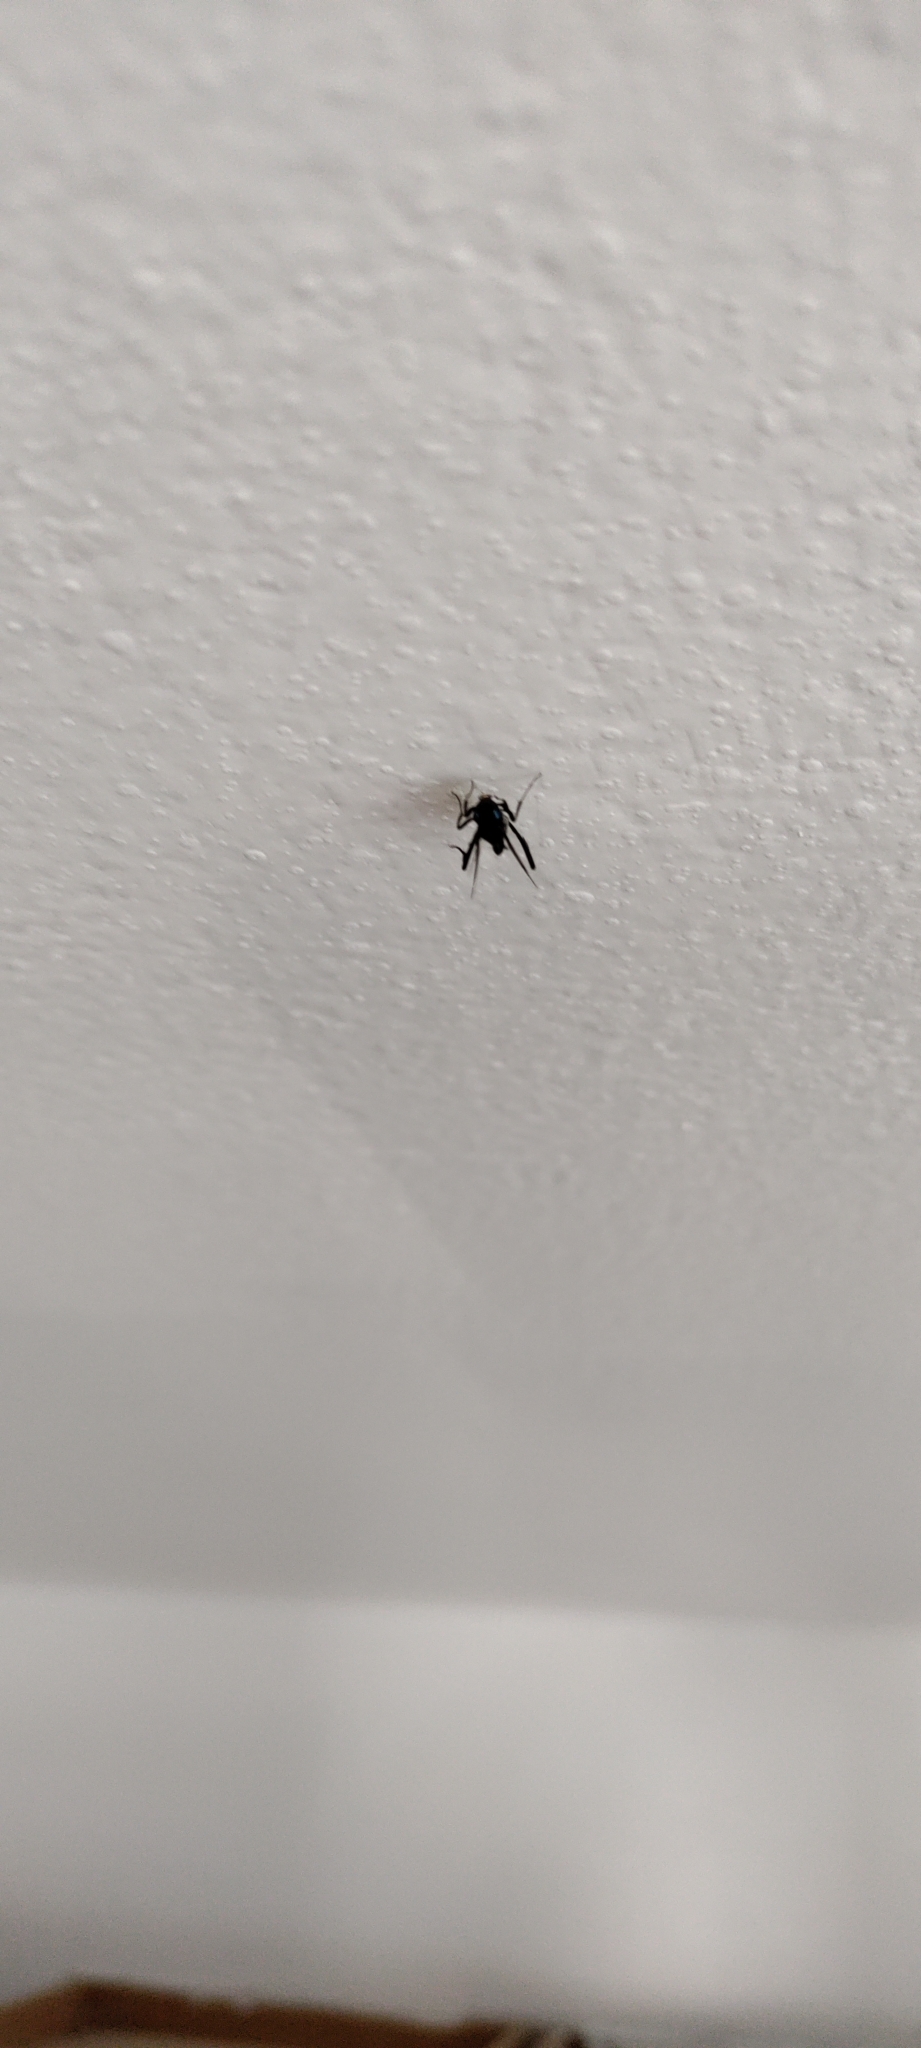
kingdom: Animalia
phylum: Arthropoda
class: Insecta
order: Hymenoptera
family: Evaniidae
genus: Evania
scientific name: Evania appendigaster
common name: Ensign wasp
